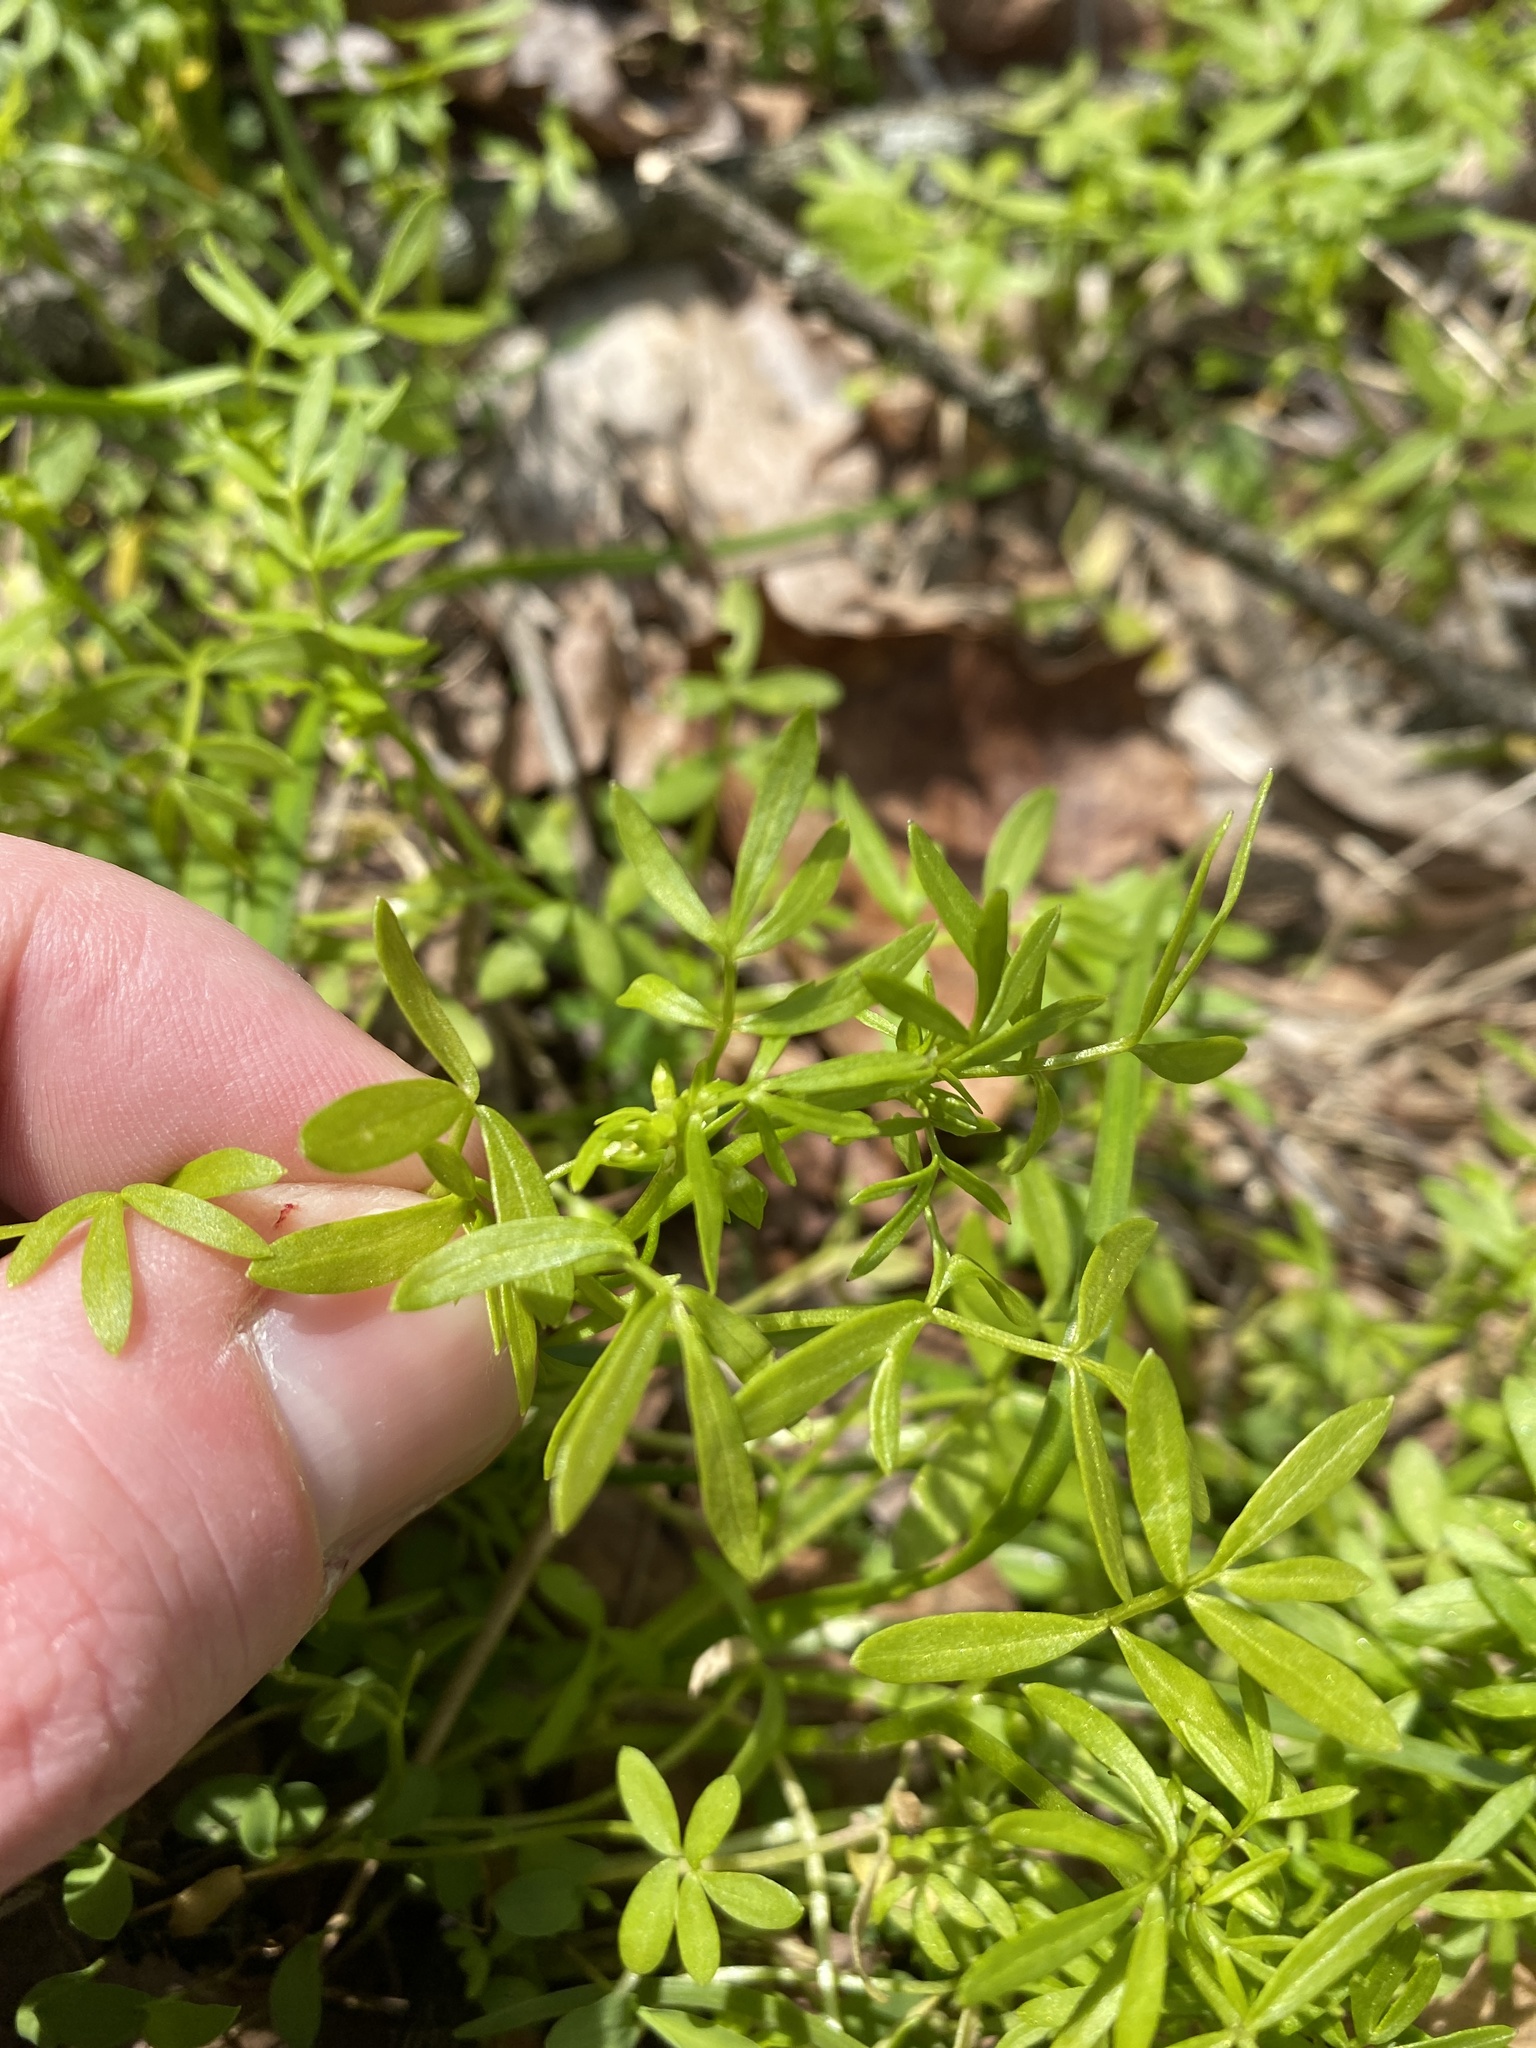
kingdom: Plantae
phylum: Tracheophyta
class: Magnoliopsida
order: Brassicales
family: Limnanthaceae
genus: Floerkea
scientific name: Floerkea proserpinacoides
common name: False mermaid
